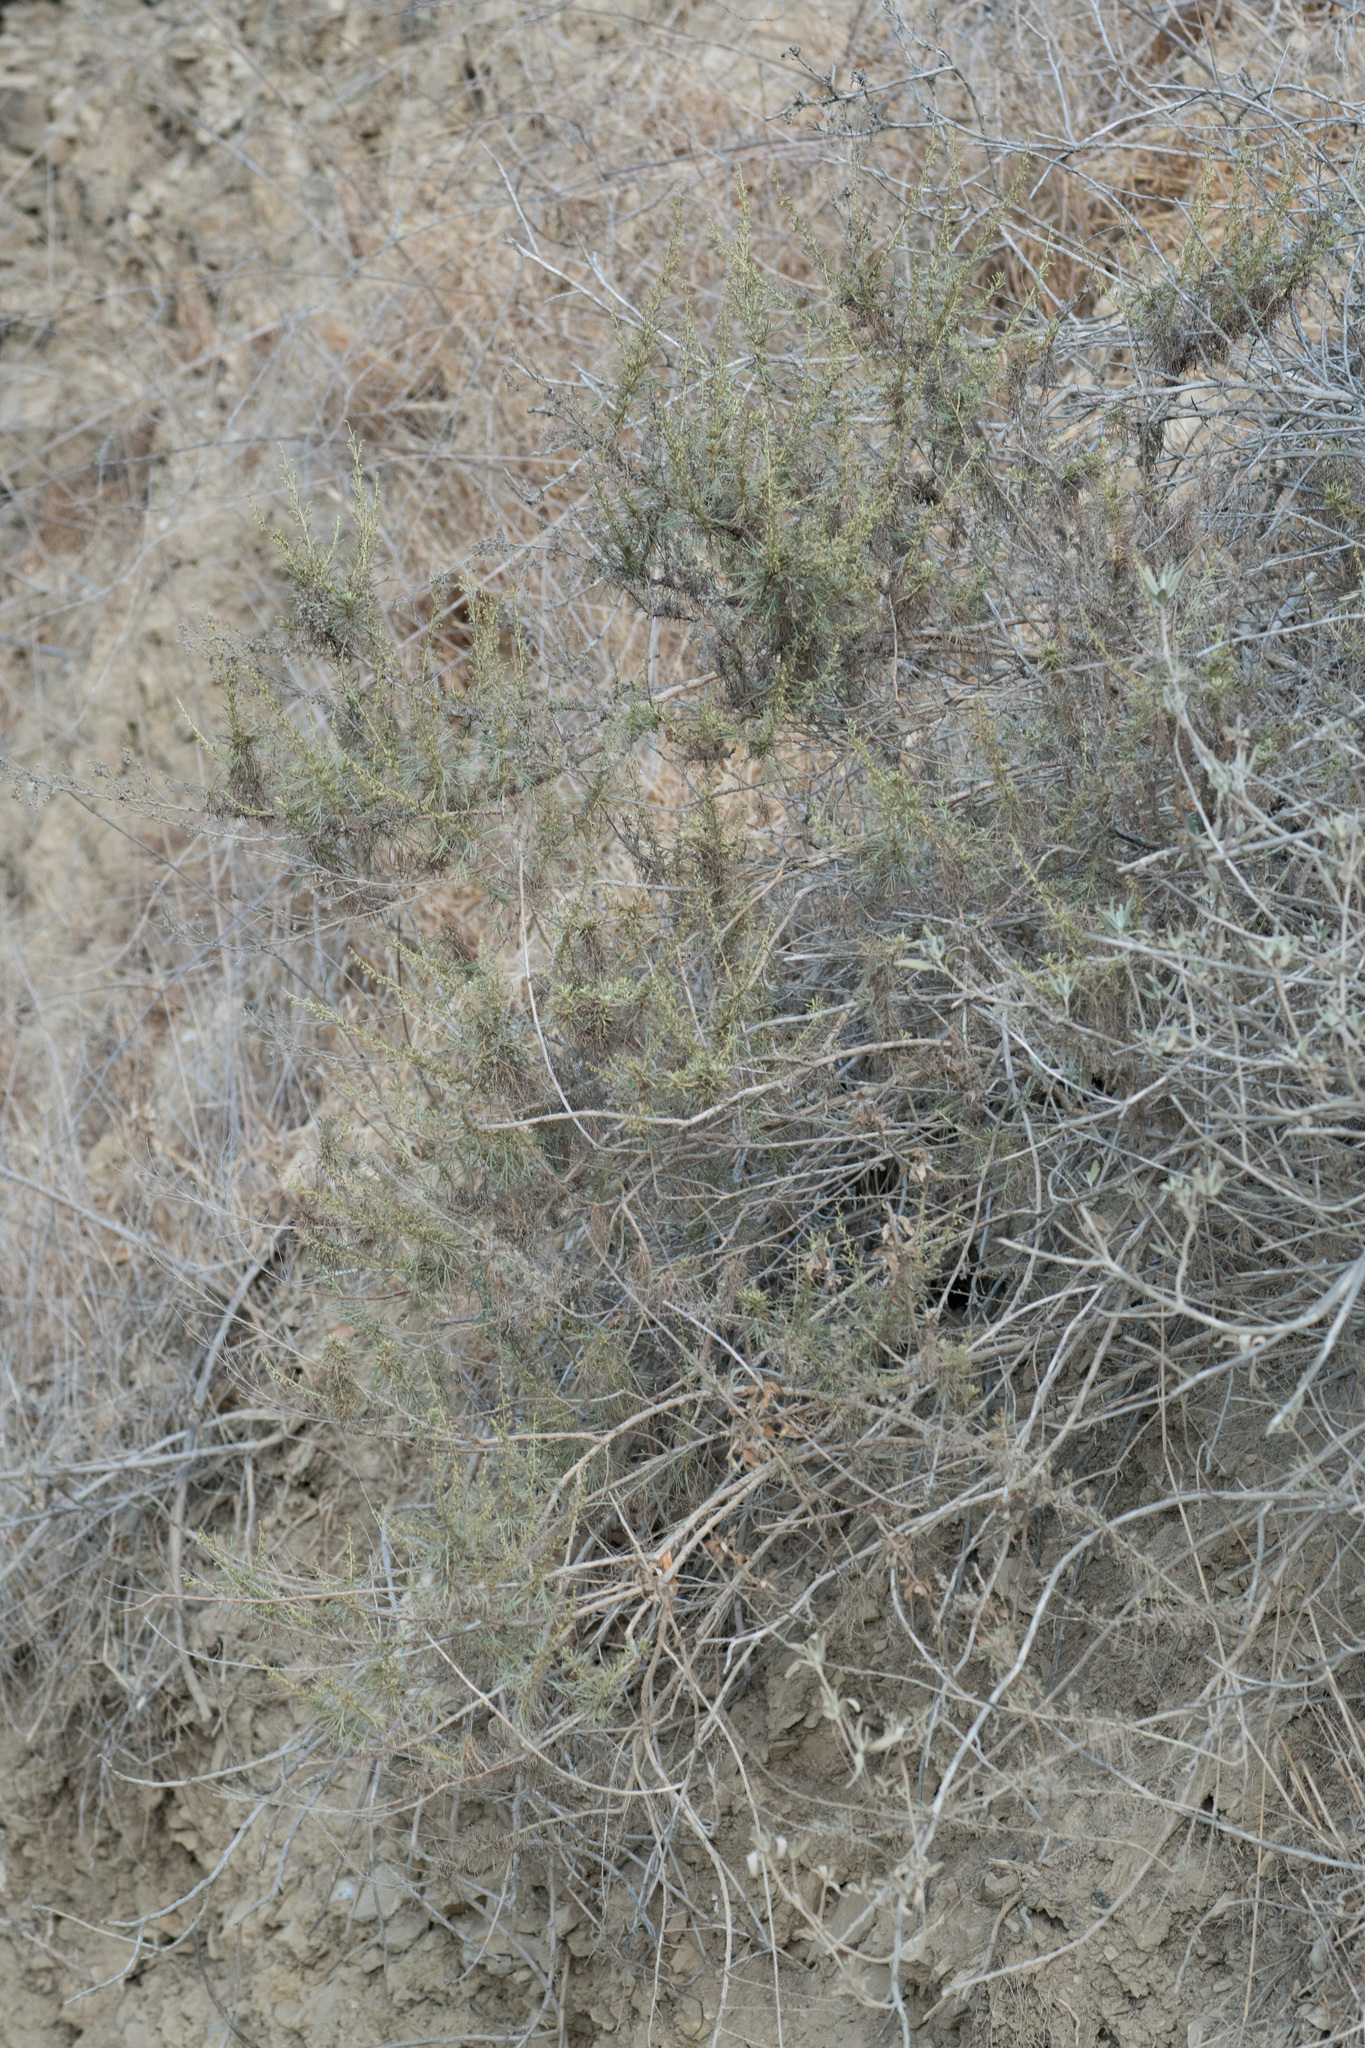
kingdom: Plantae
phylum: Tracheophyta
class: Magnoliopsida
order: Asterales
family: Asteraceae
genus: Artemisia
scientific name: Artemisia californica
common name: California sagebrush
